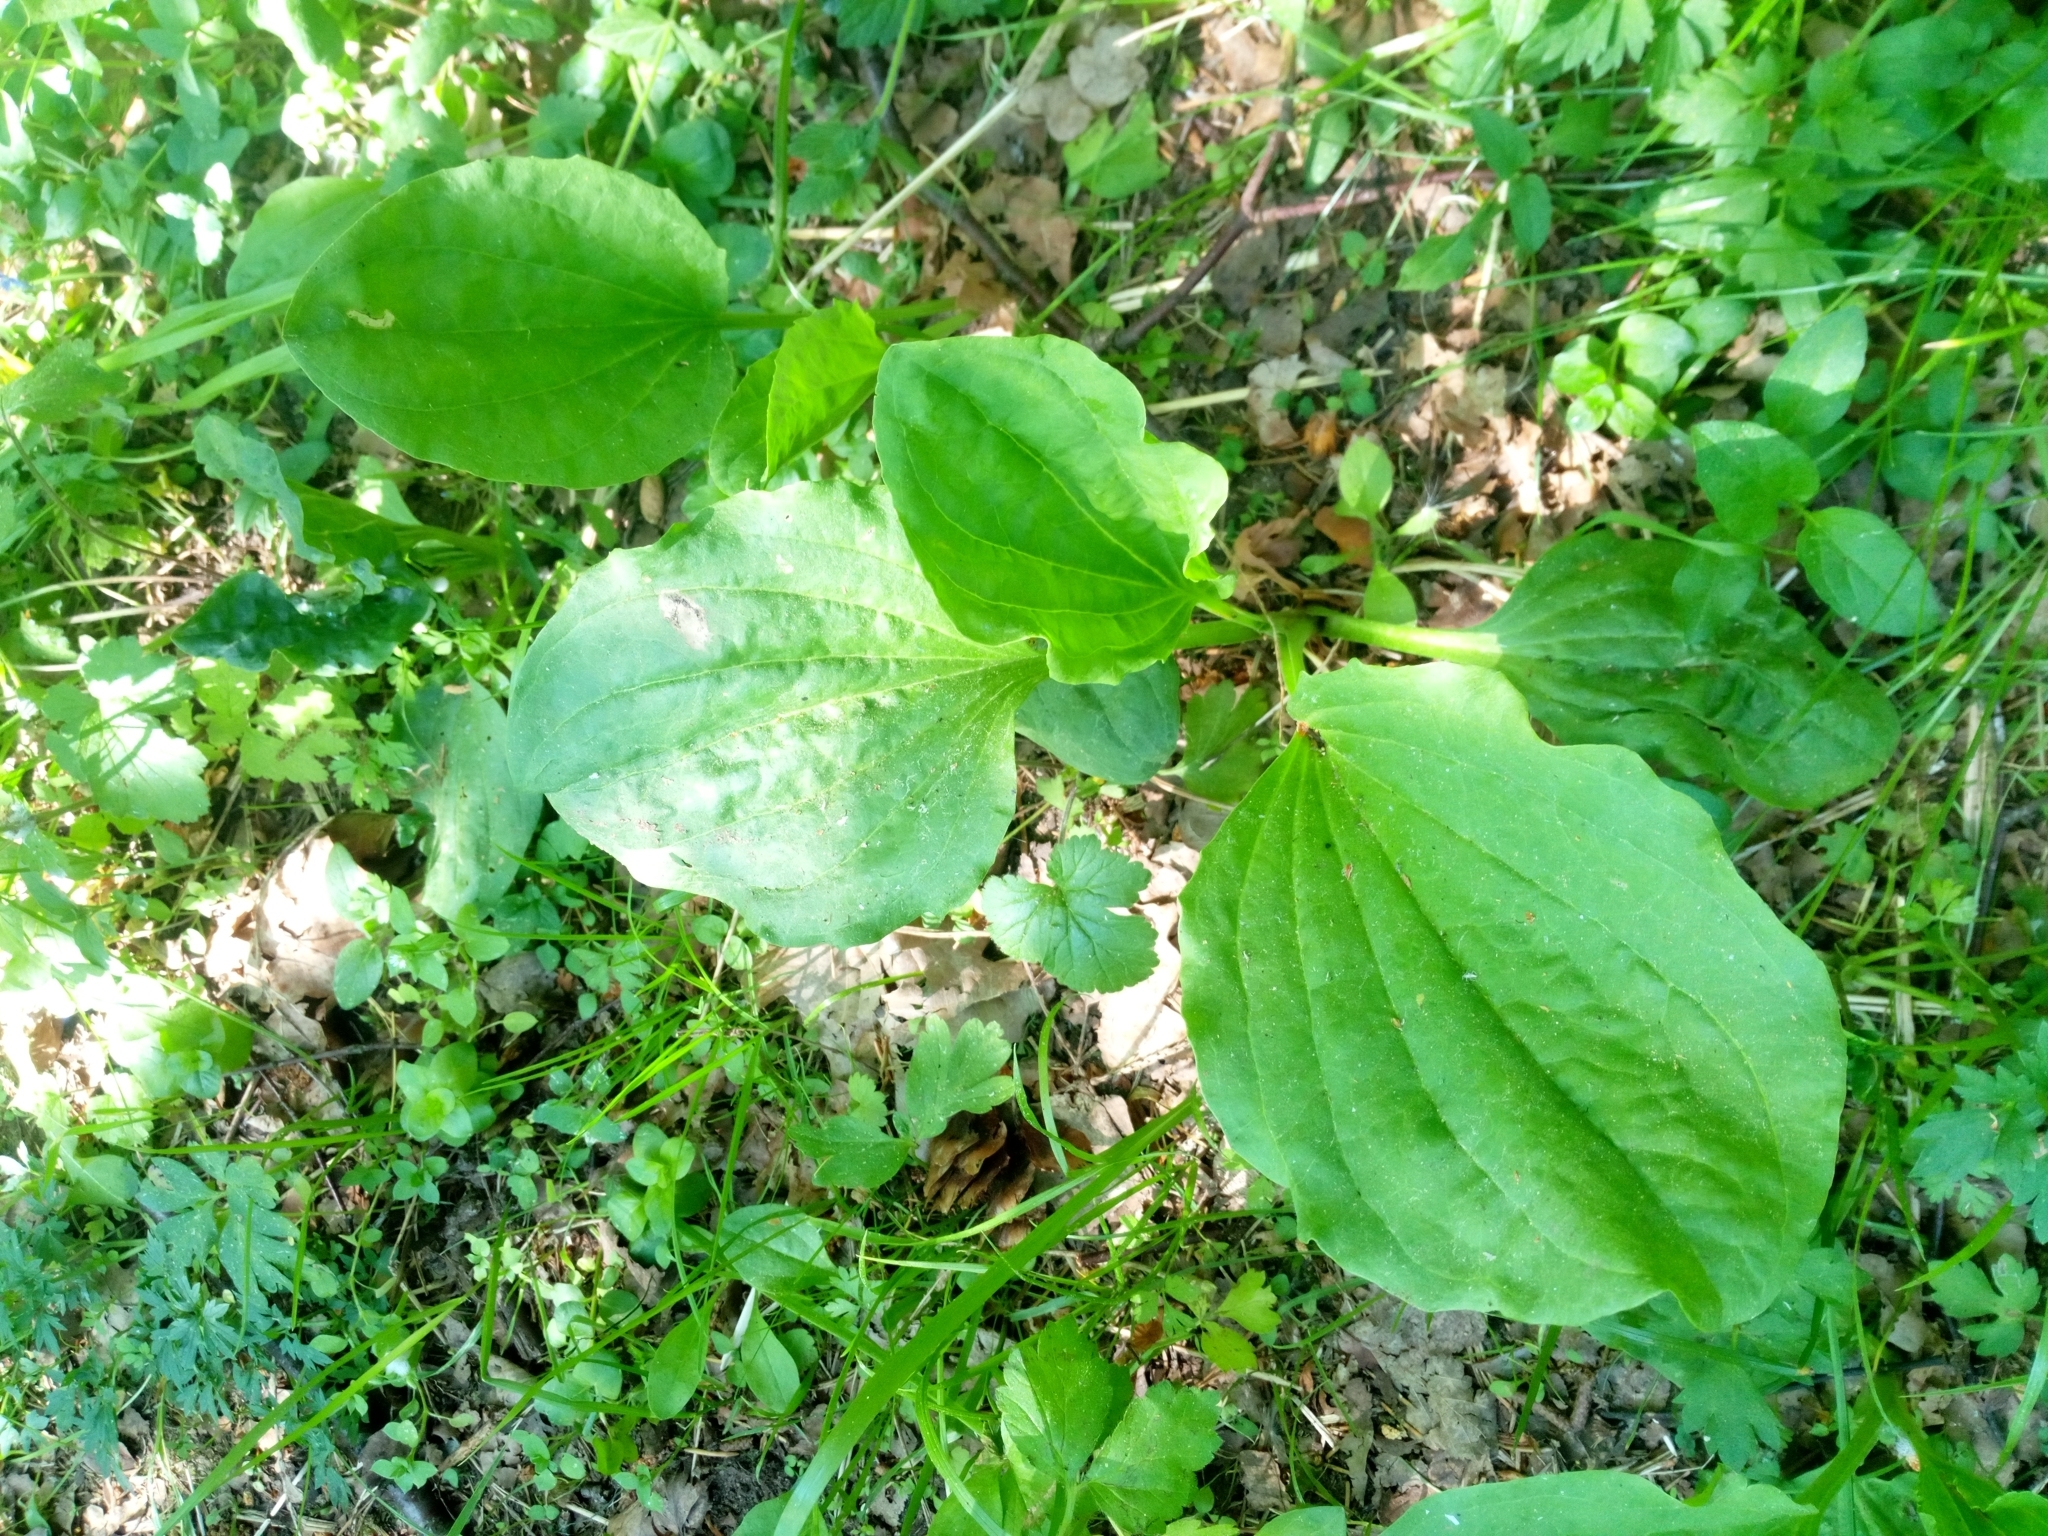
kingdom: Plantae
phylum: Tracheophyta
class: Magnoliopsida
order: Lamiales
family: Plantaginaceae
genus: Plantago
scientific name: Plantago major
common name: Common plantain
